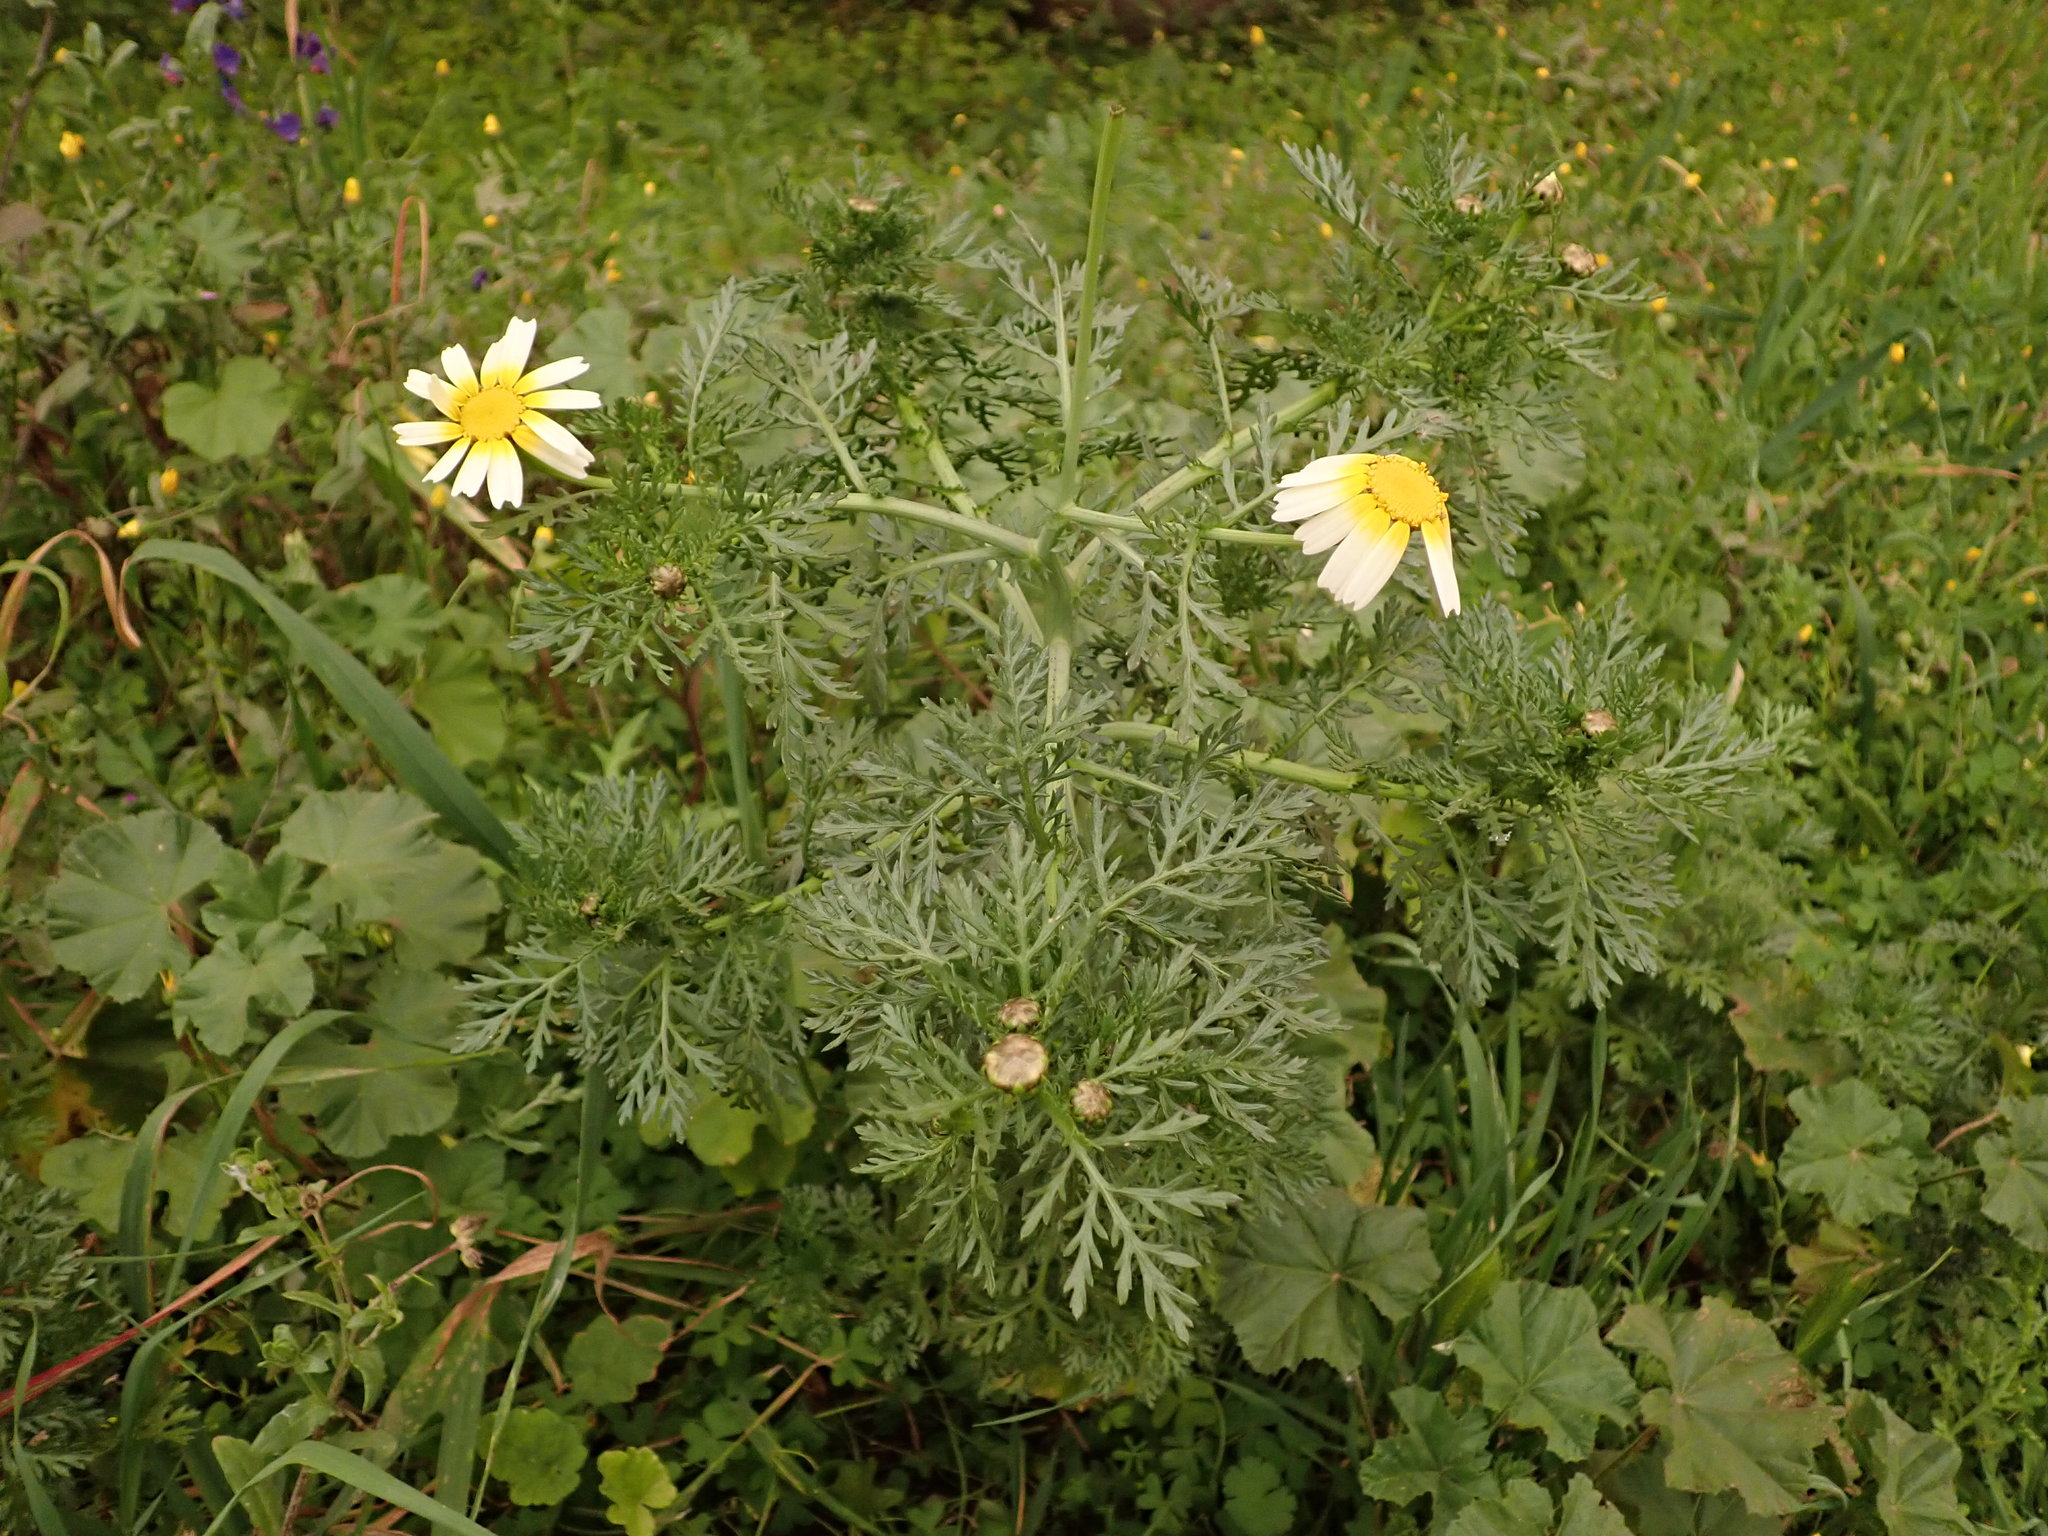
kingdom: Plantae
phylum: Tracheophyta
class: Magnoliopsida
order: Asterales
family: Asteraceae
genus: Glebionis
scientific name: Glebionis coronaria
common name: Crowndaisy
